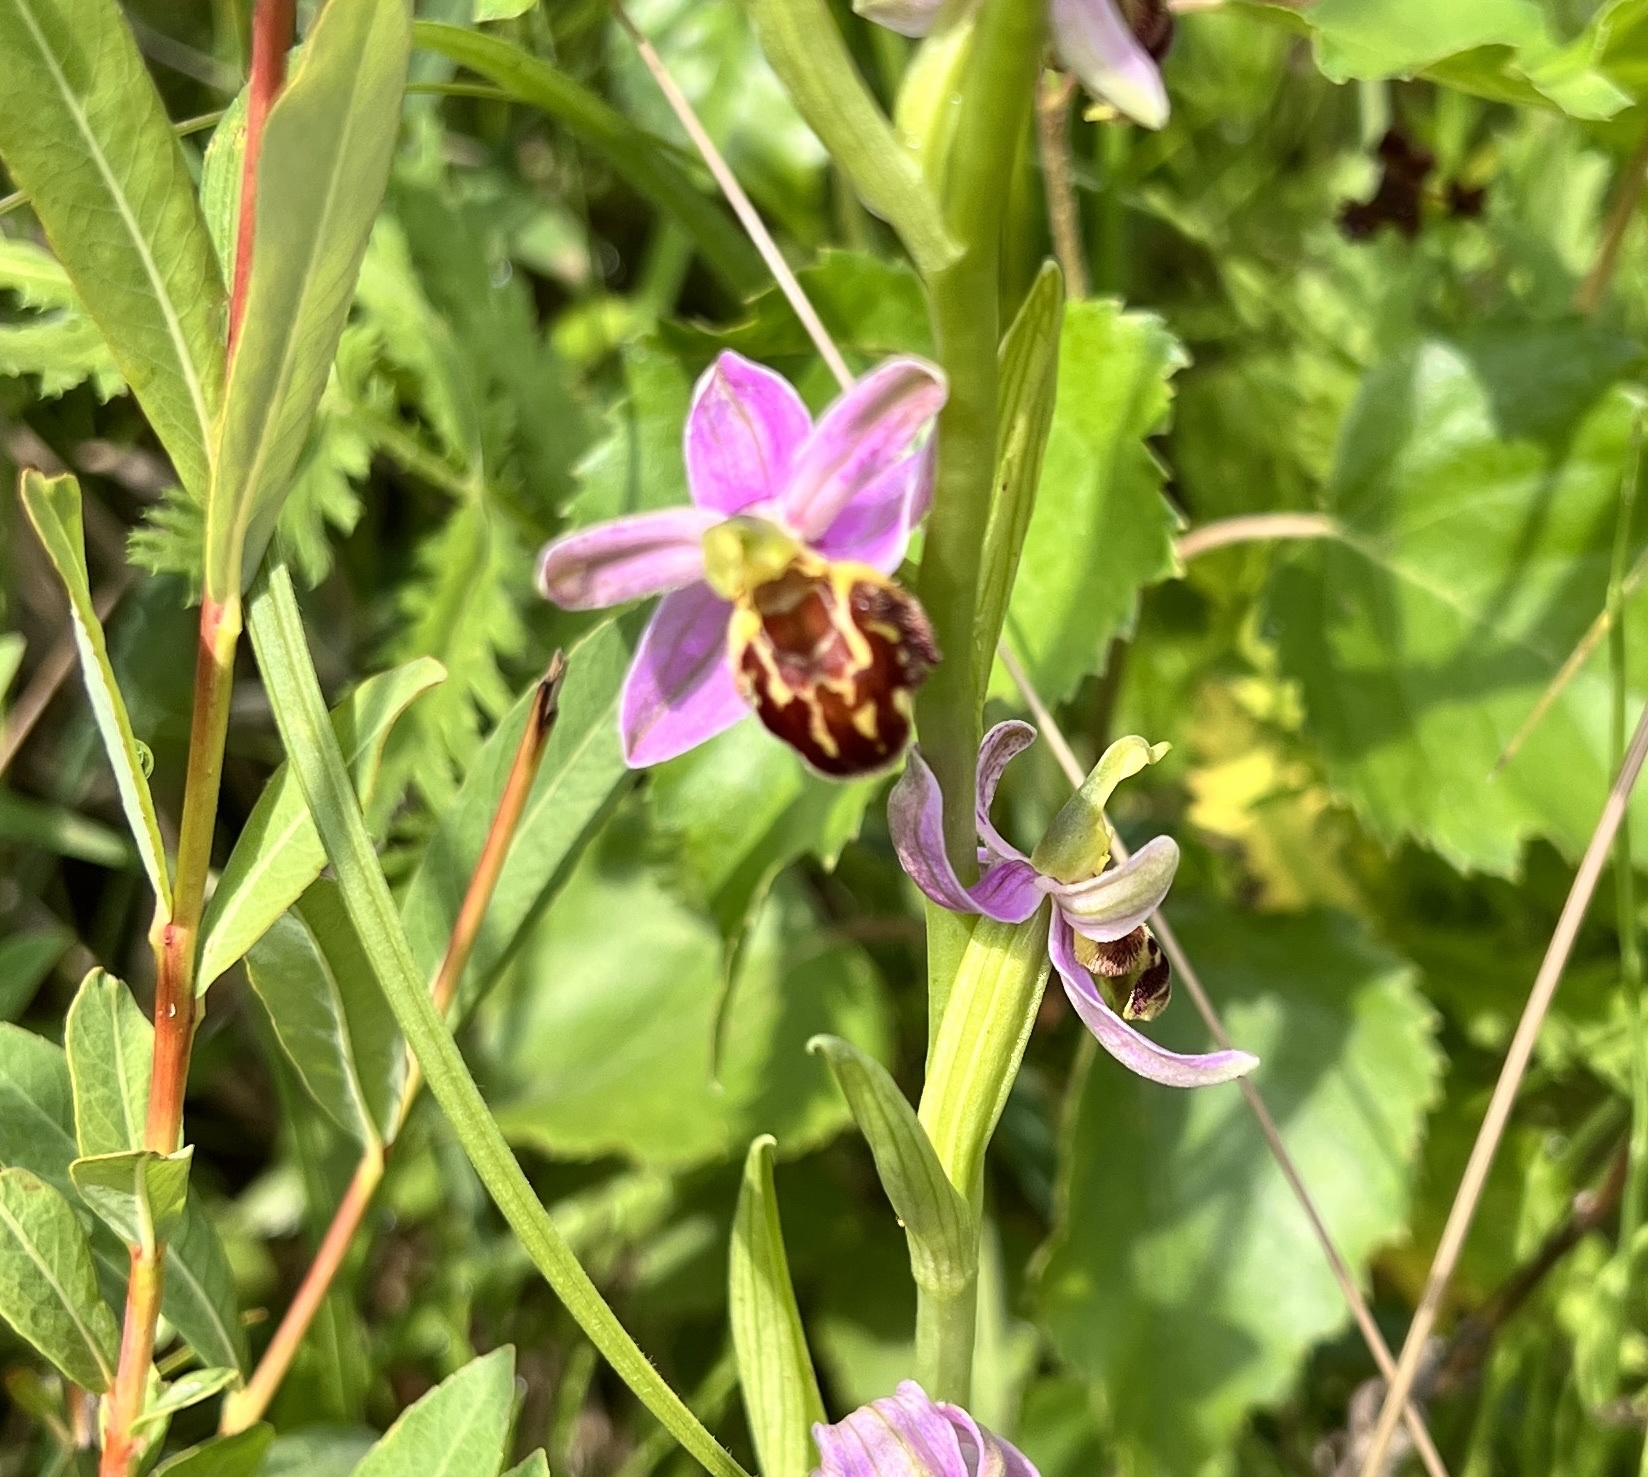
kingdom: Plantae
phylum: Tracheophyta
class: Liliopsida
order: Asparagales
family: Orchidaceae
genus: Ophrys
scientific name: Ophrys apifera
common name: Bee orchid
